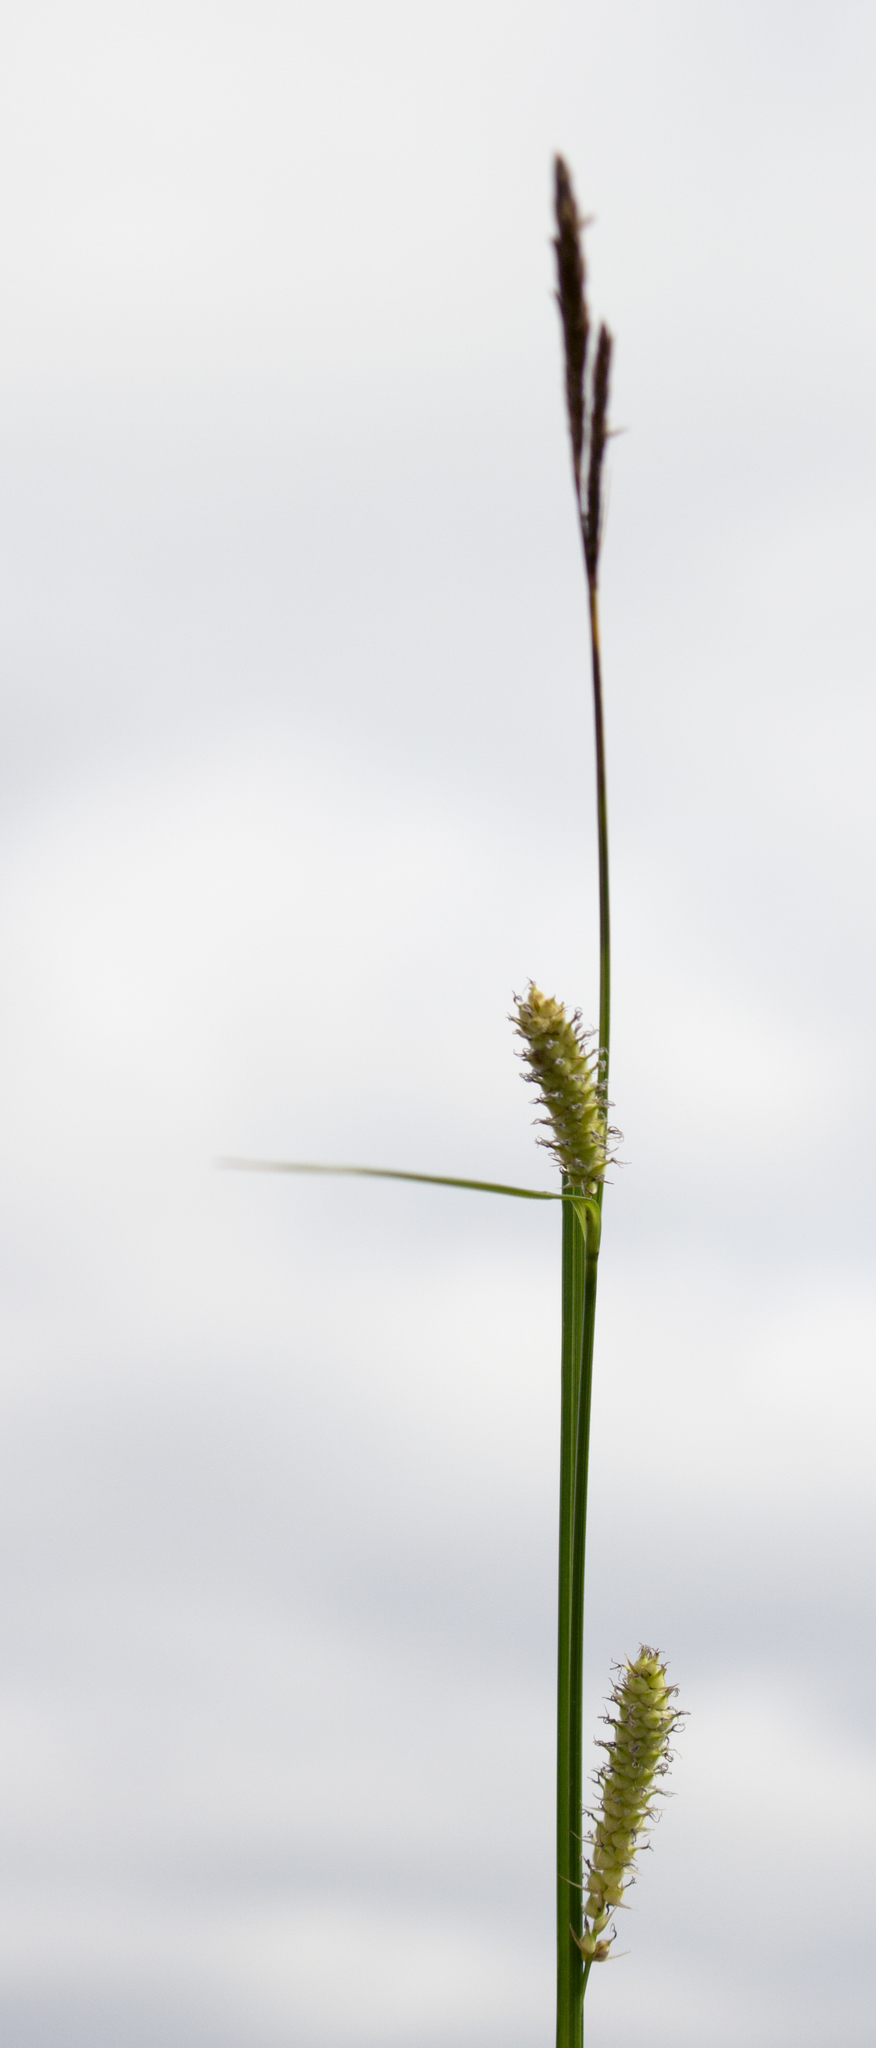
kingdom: Plantae
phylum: Tracheophyta
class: Liliopsida
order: Poales
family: Cyperaceae
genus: Carex
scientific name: Carex pellita
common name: Woolly sedge
